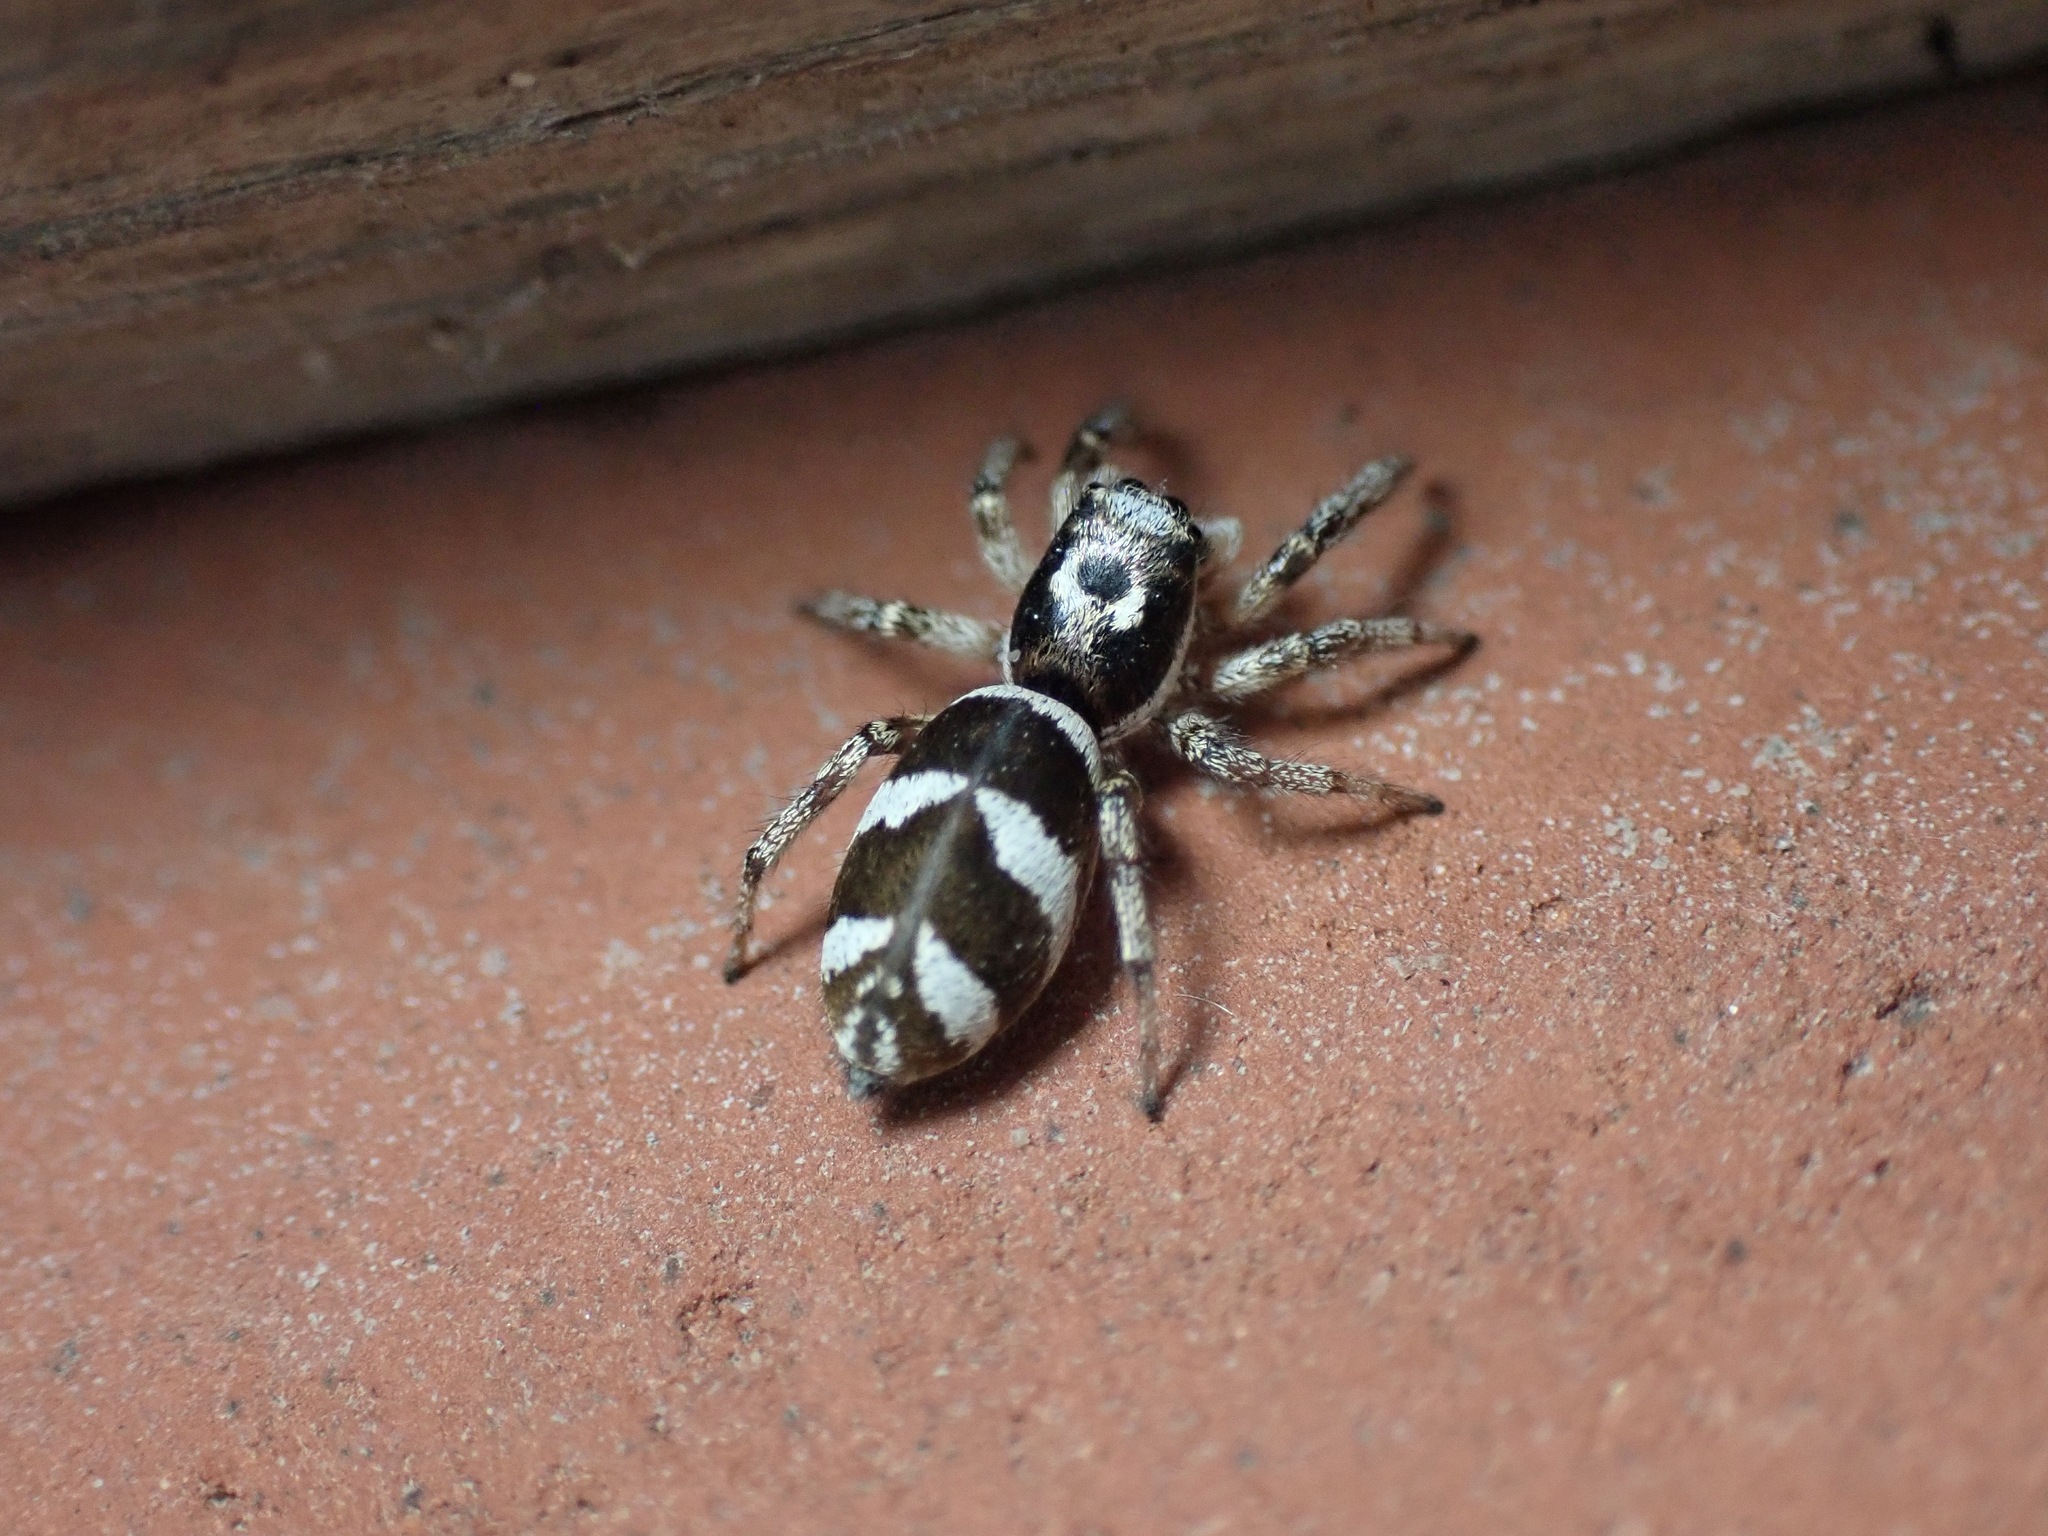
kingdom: Animalia
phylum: Arthropoda
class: Arachnida
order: Araneae
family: Salticidae
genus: Salticus
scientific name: Salticus scenicus
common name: Zebra jumper
